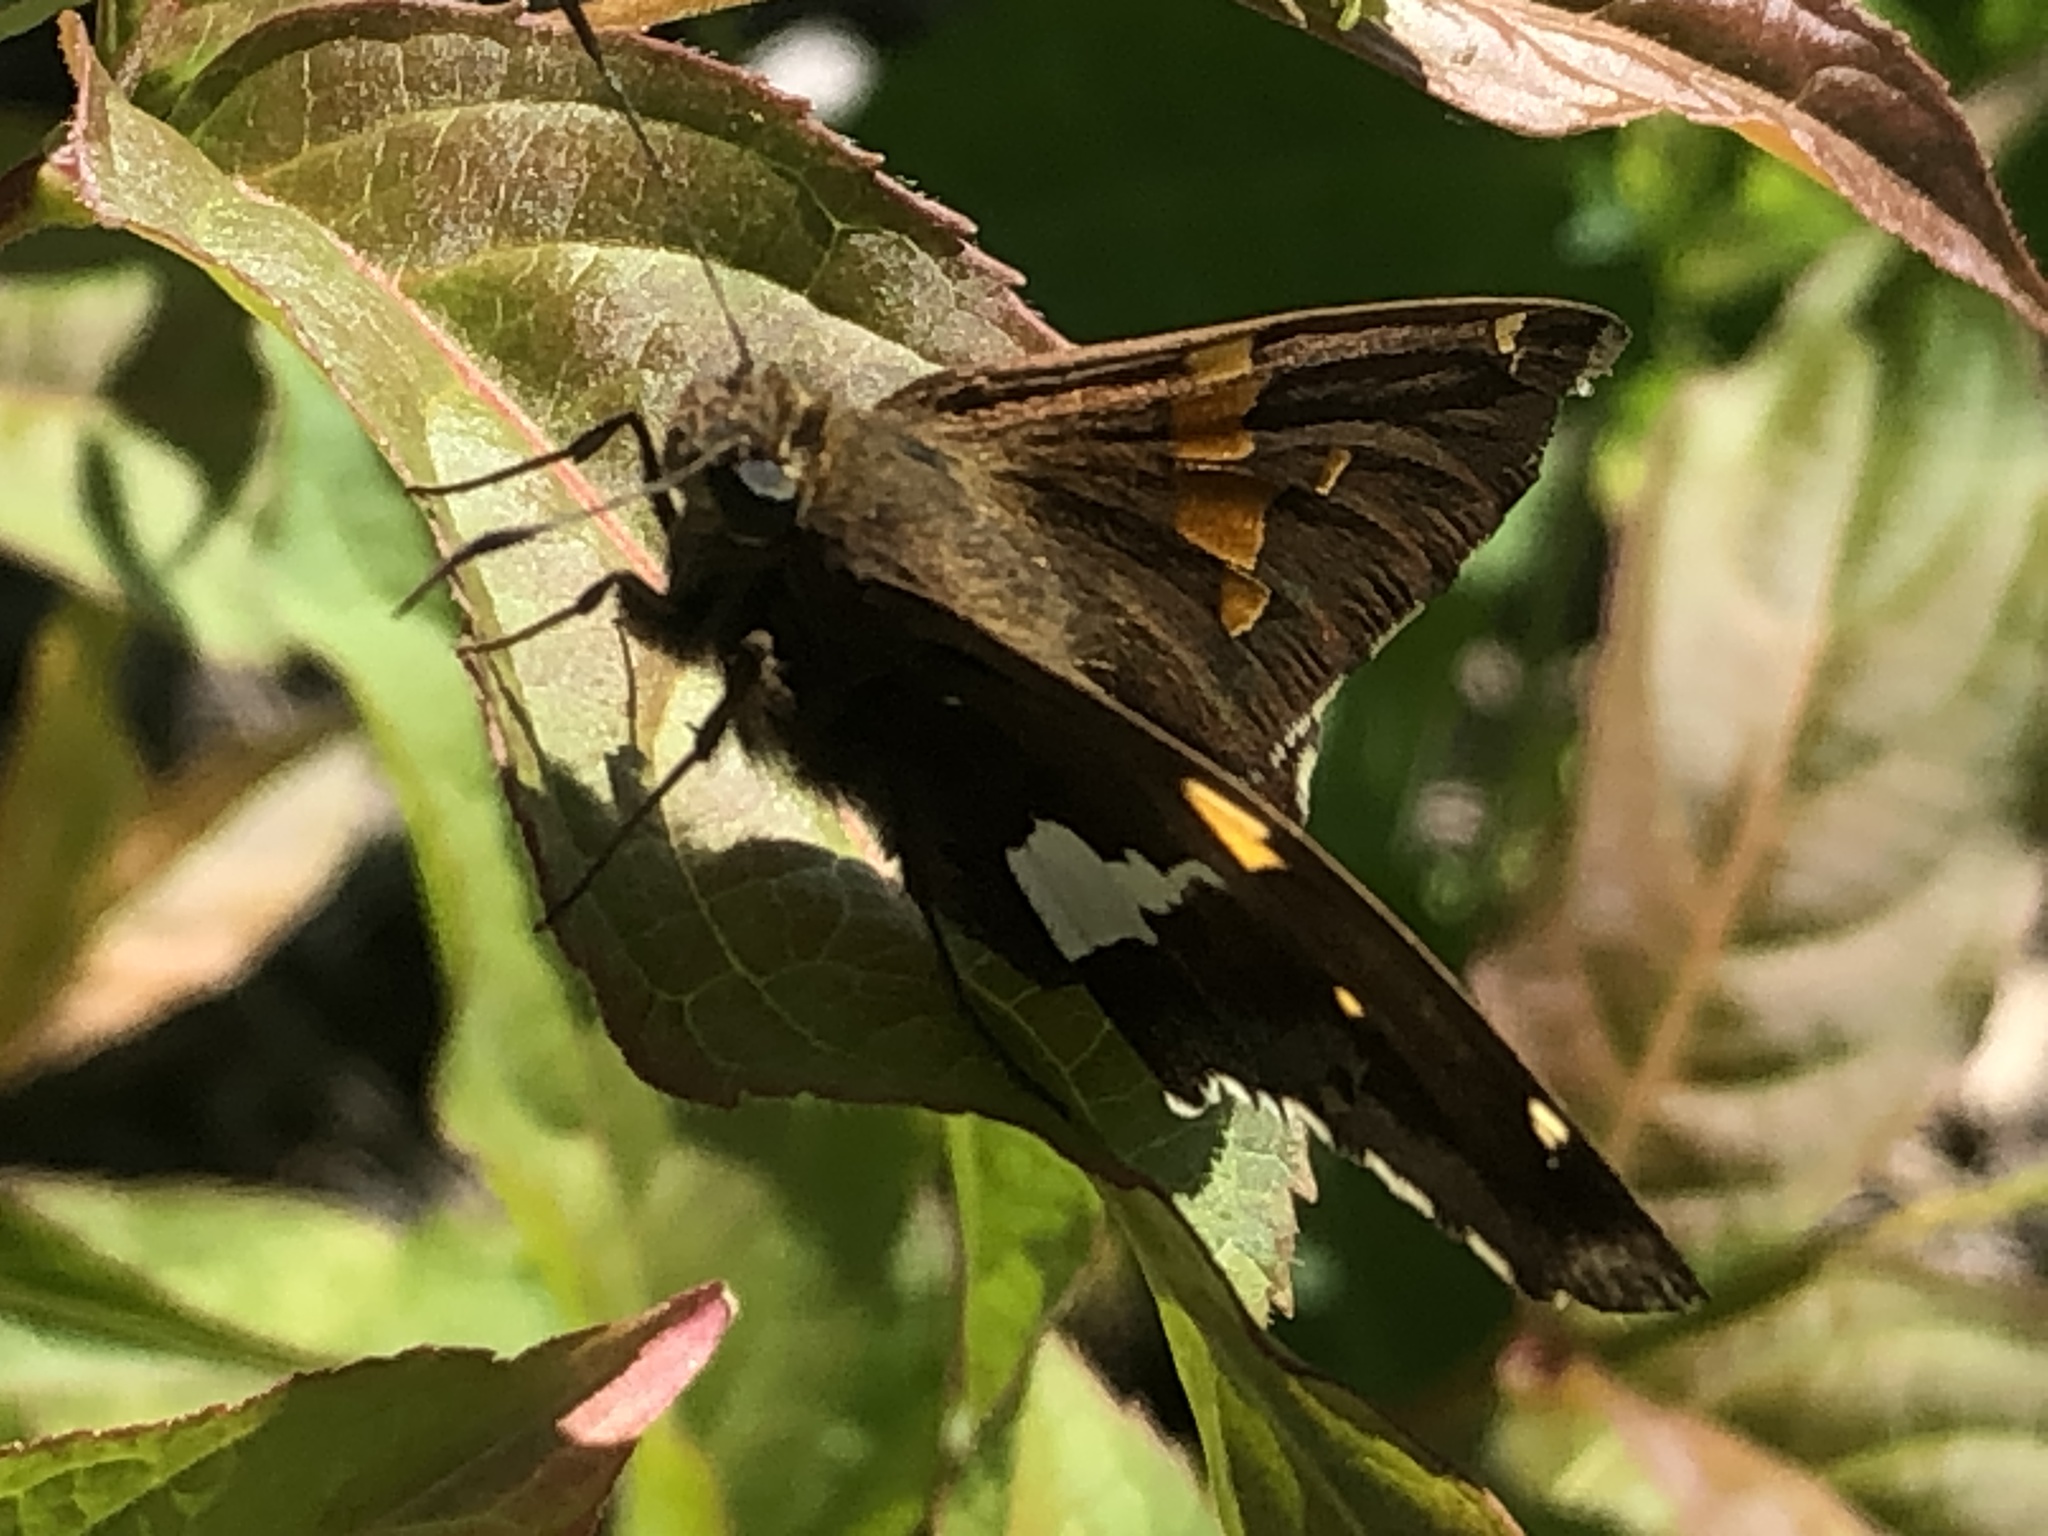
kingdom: Animalia
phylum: Arthropoda
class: Insecta
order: Lepidoptera
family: Hesperiidae
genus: Epargyreus
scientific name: Epargyreus clarus
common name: Silver-spotted skipper
